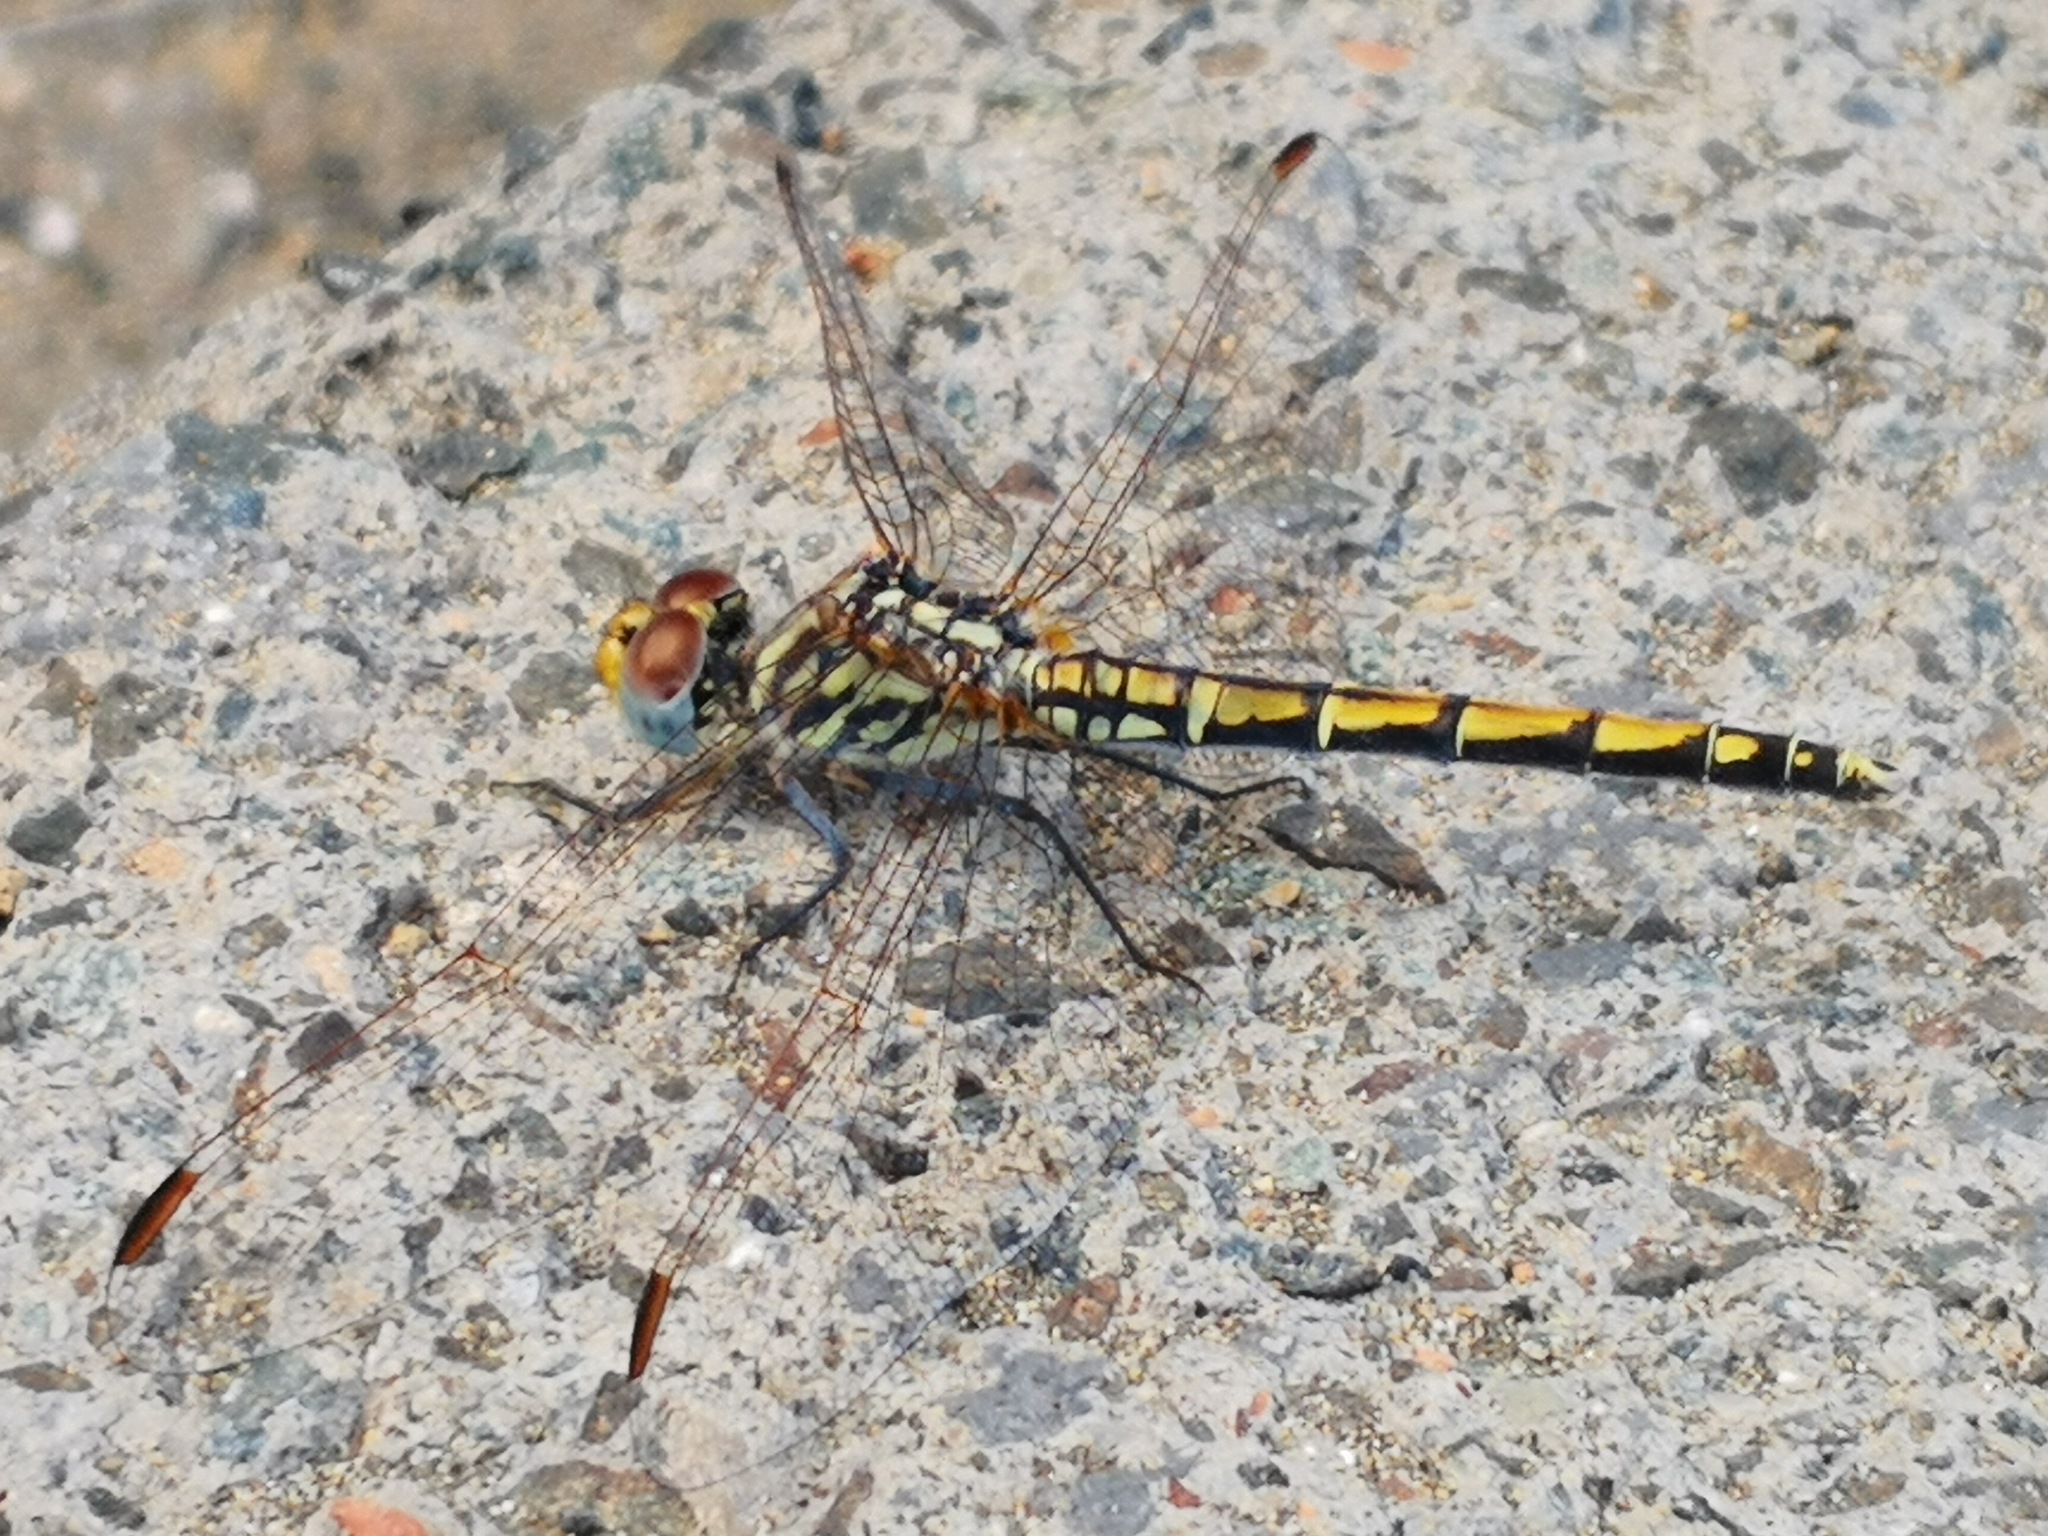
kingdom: Animalia
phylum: Arthropoda
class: Insecta
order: Odonata
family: Libellulidae
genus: Trithemis
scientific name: Trithemis arteriosa
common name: Red-veined dropwing
